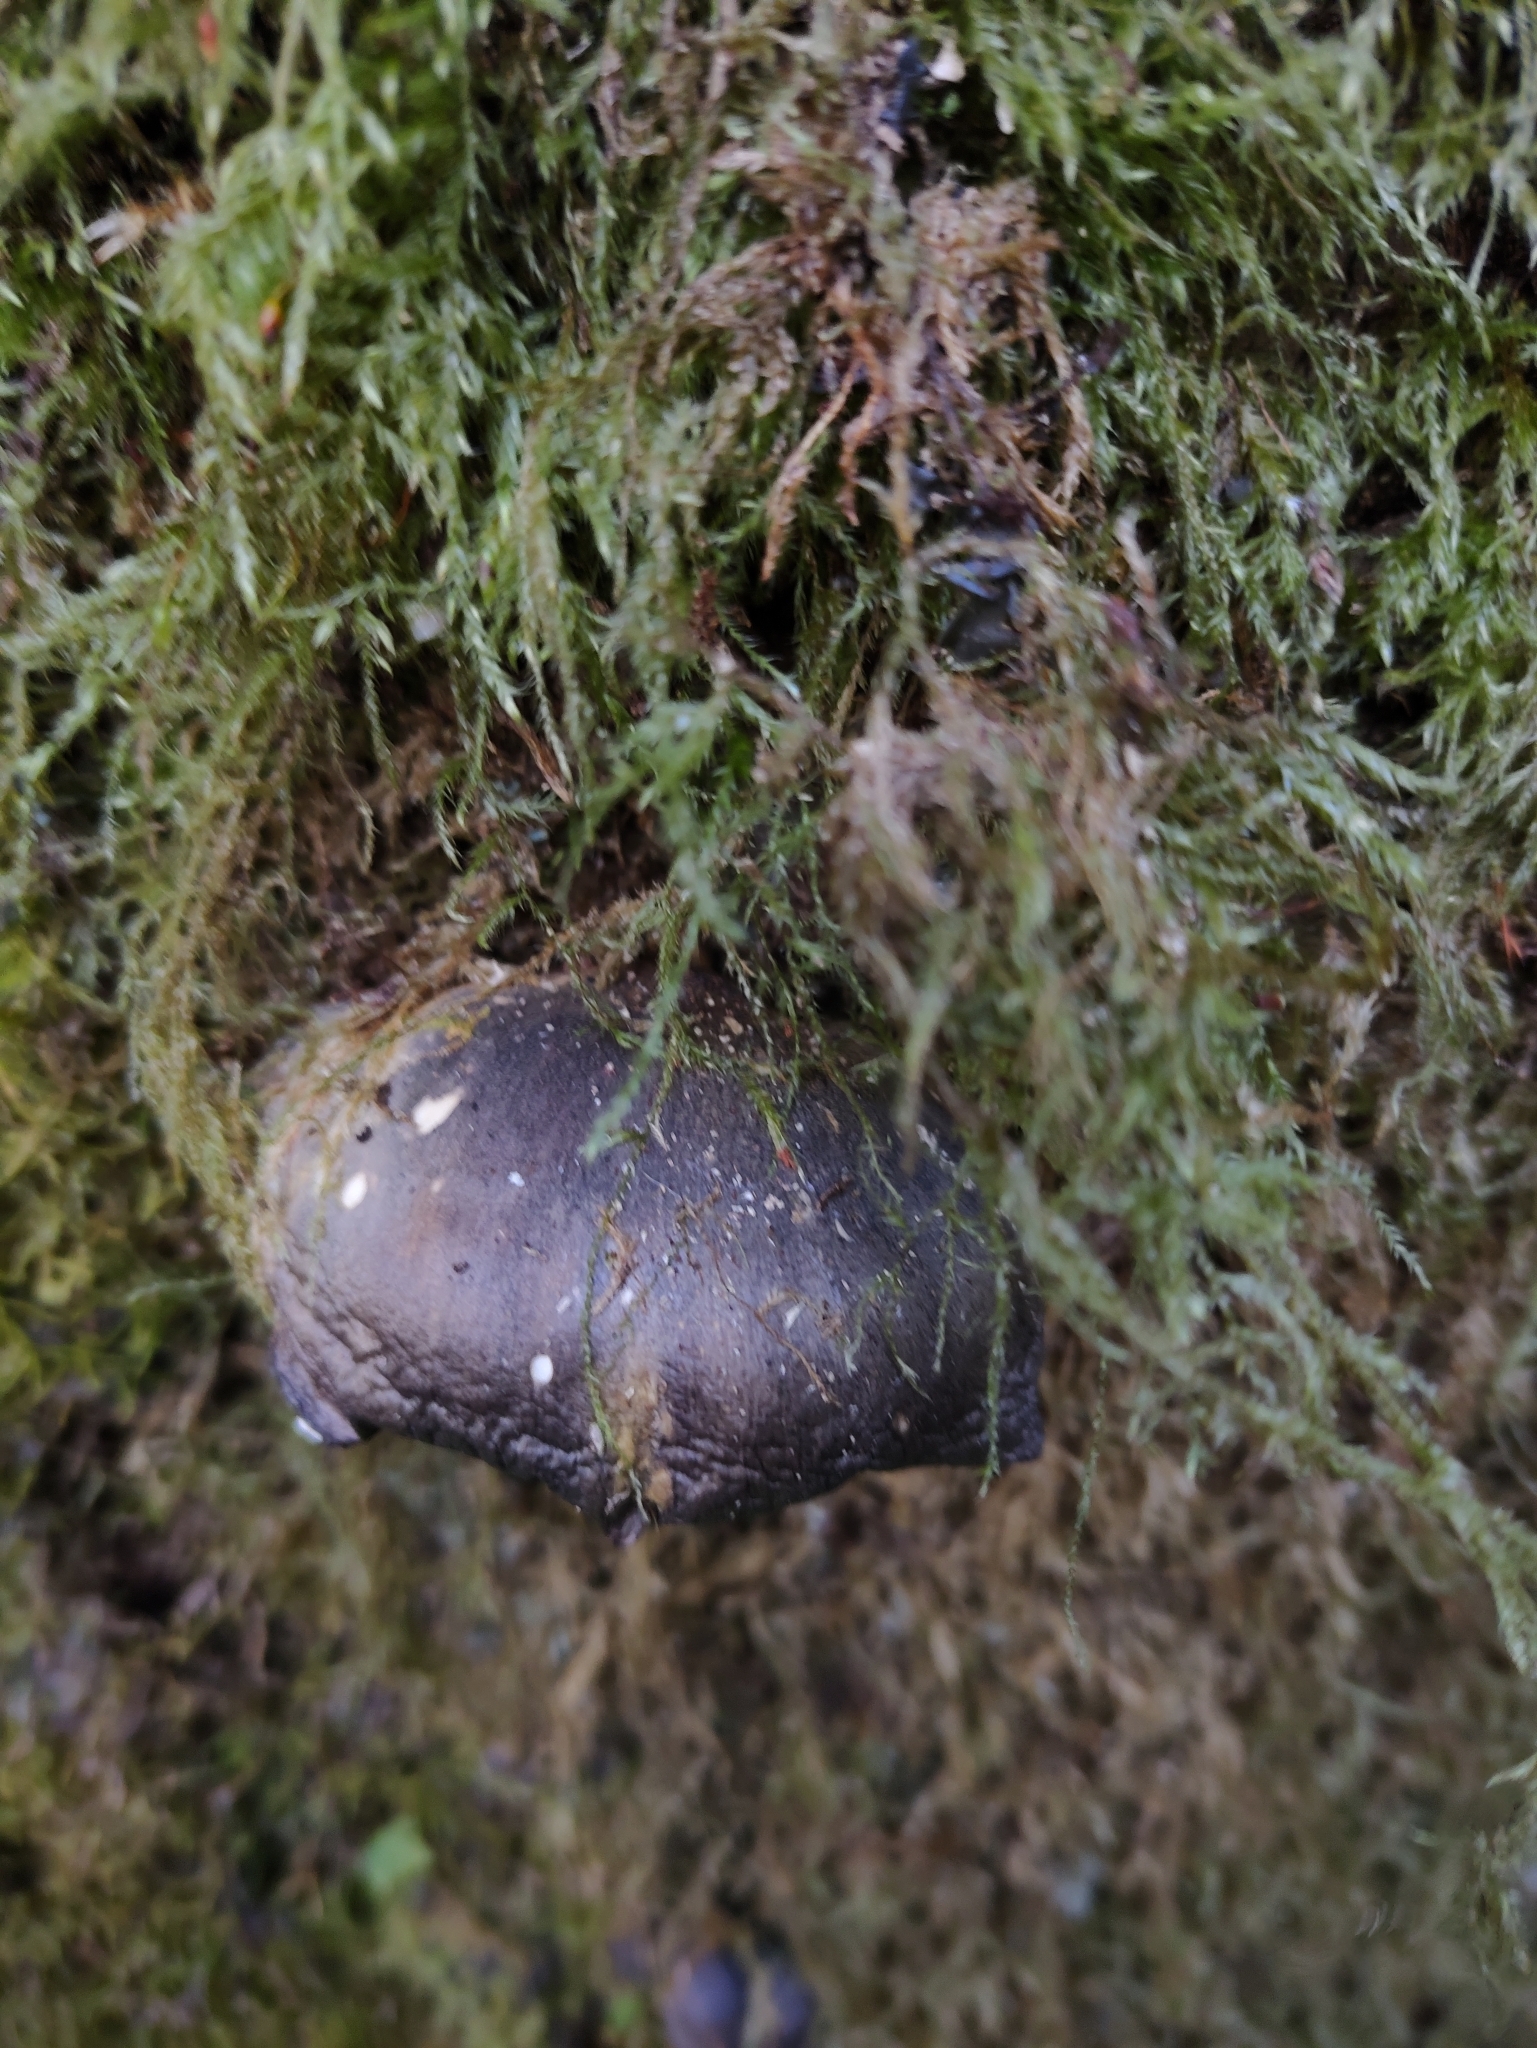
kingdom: Fungi
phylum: Basidiomycota
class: Agaricomycetes
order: Agaricales
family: Sarcomyxaceae
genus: Sarcomyxa
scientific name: Sarcomyxa serotina
